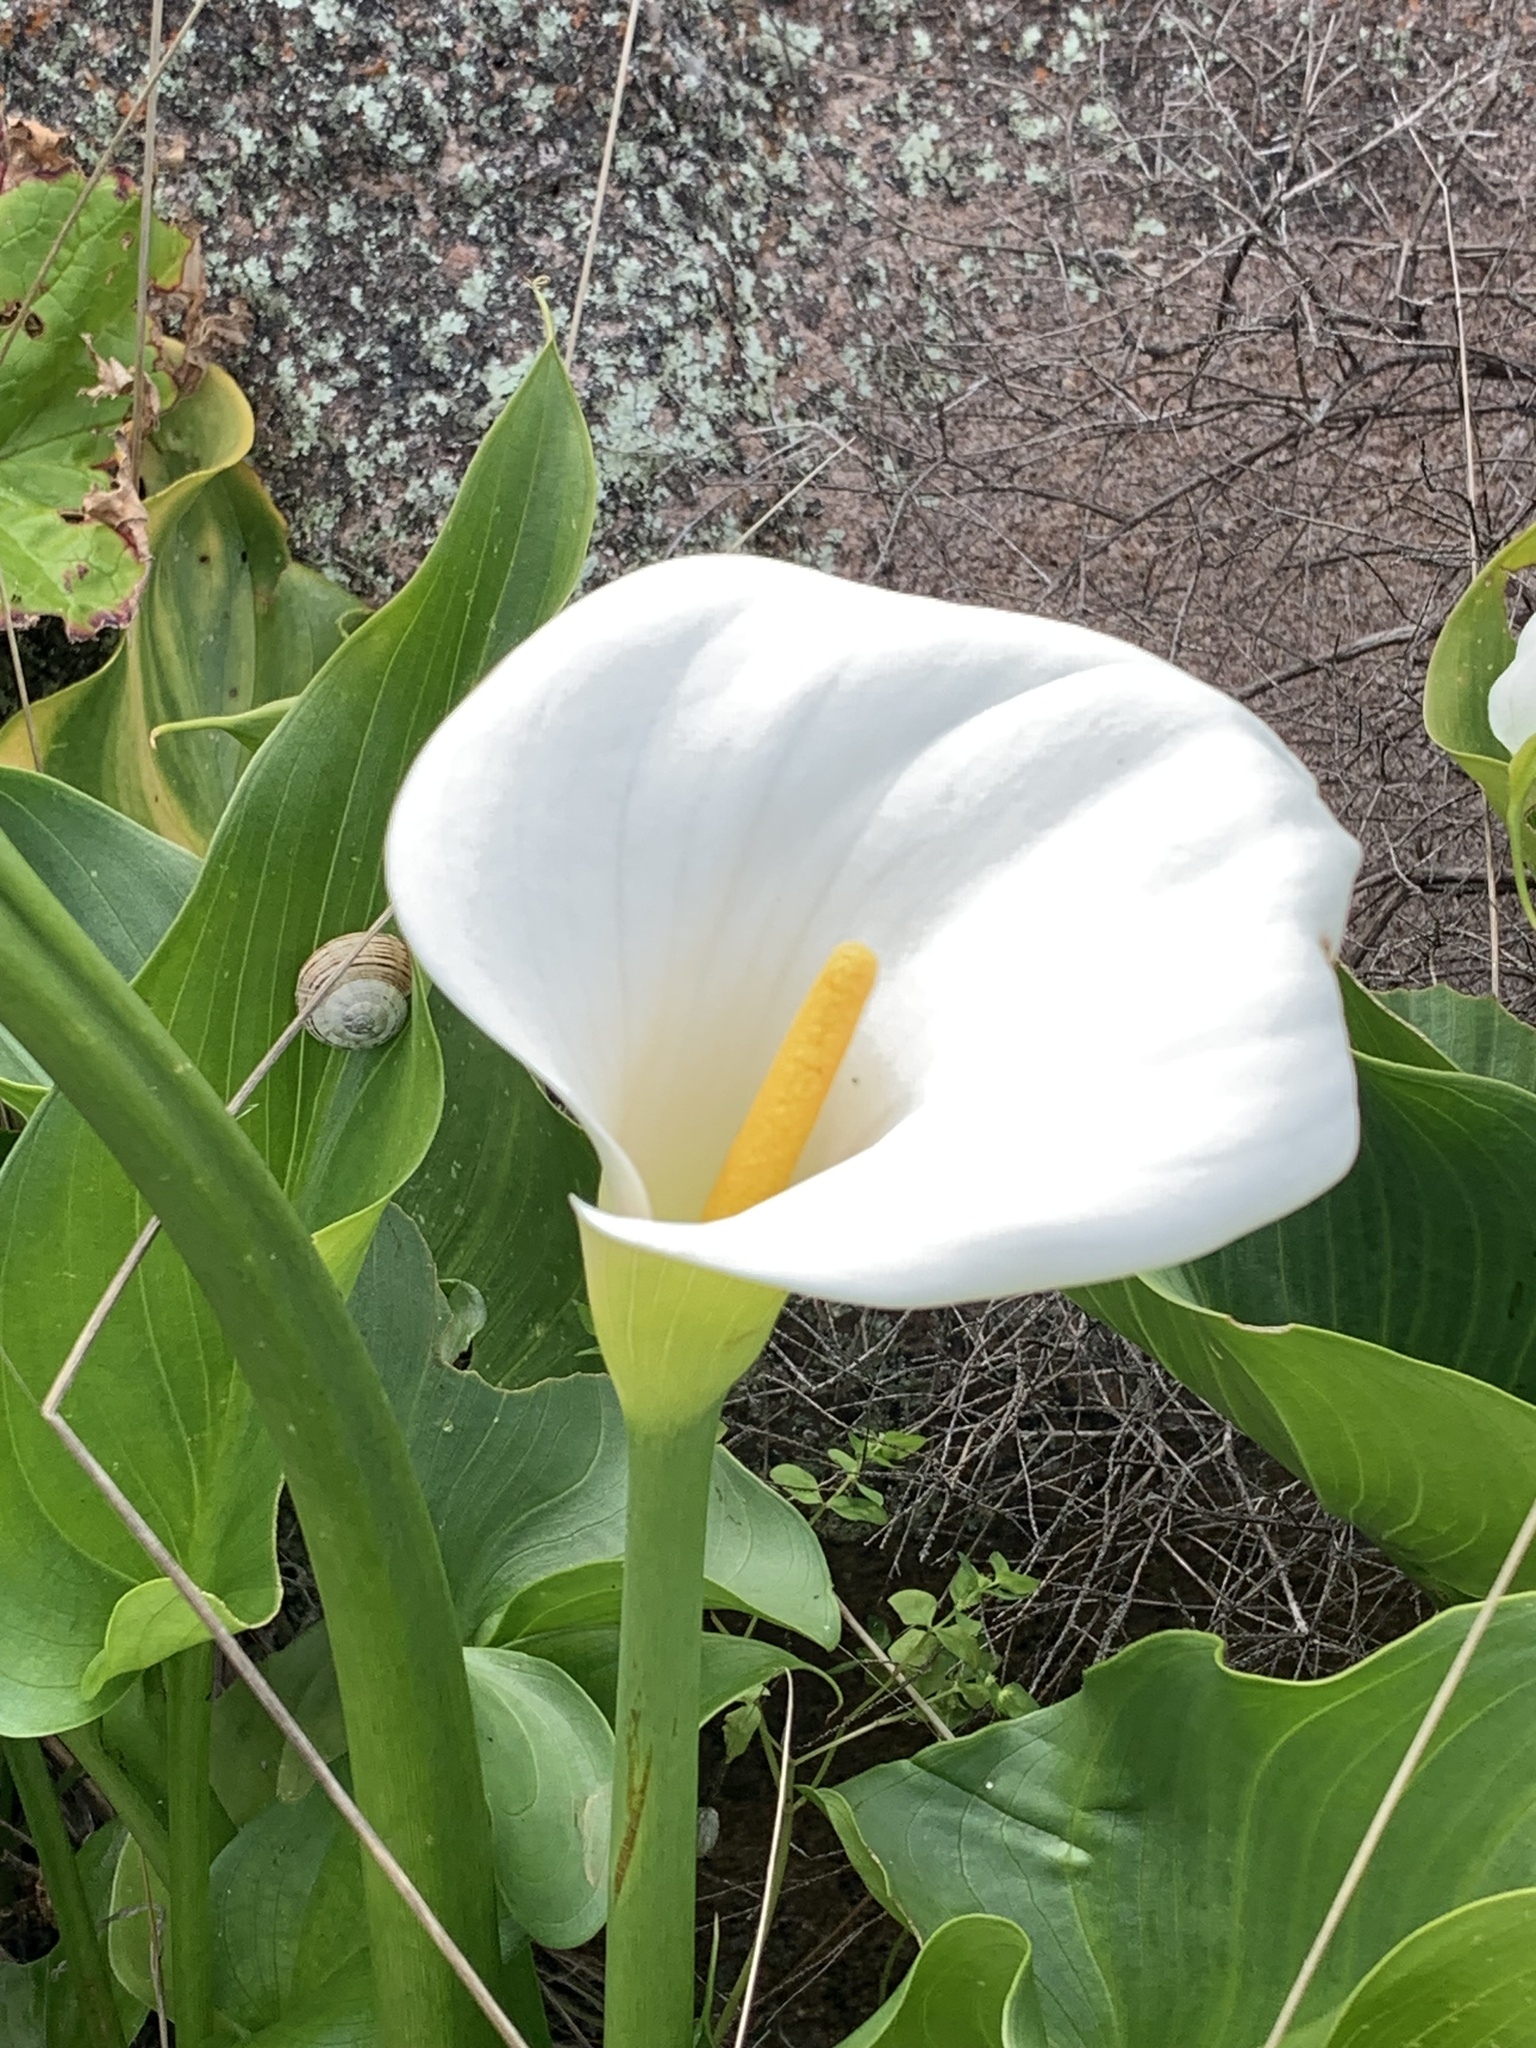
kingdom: Plantae
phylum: Tracheophyta
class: Liliopsida
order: Alismatales
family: Araceae
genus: Zantedeschia
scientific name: Zantedeschia aethiopica
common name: Altar-lily
